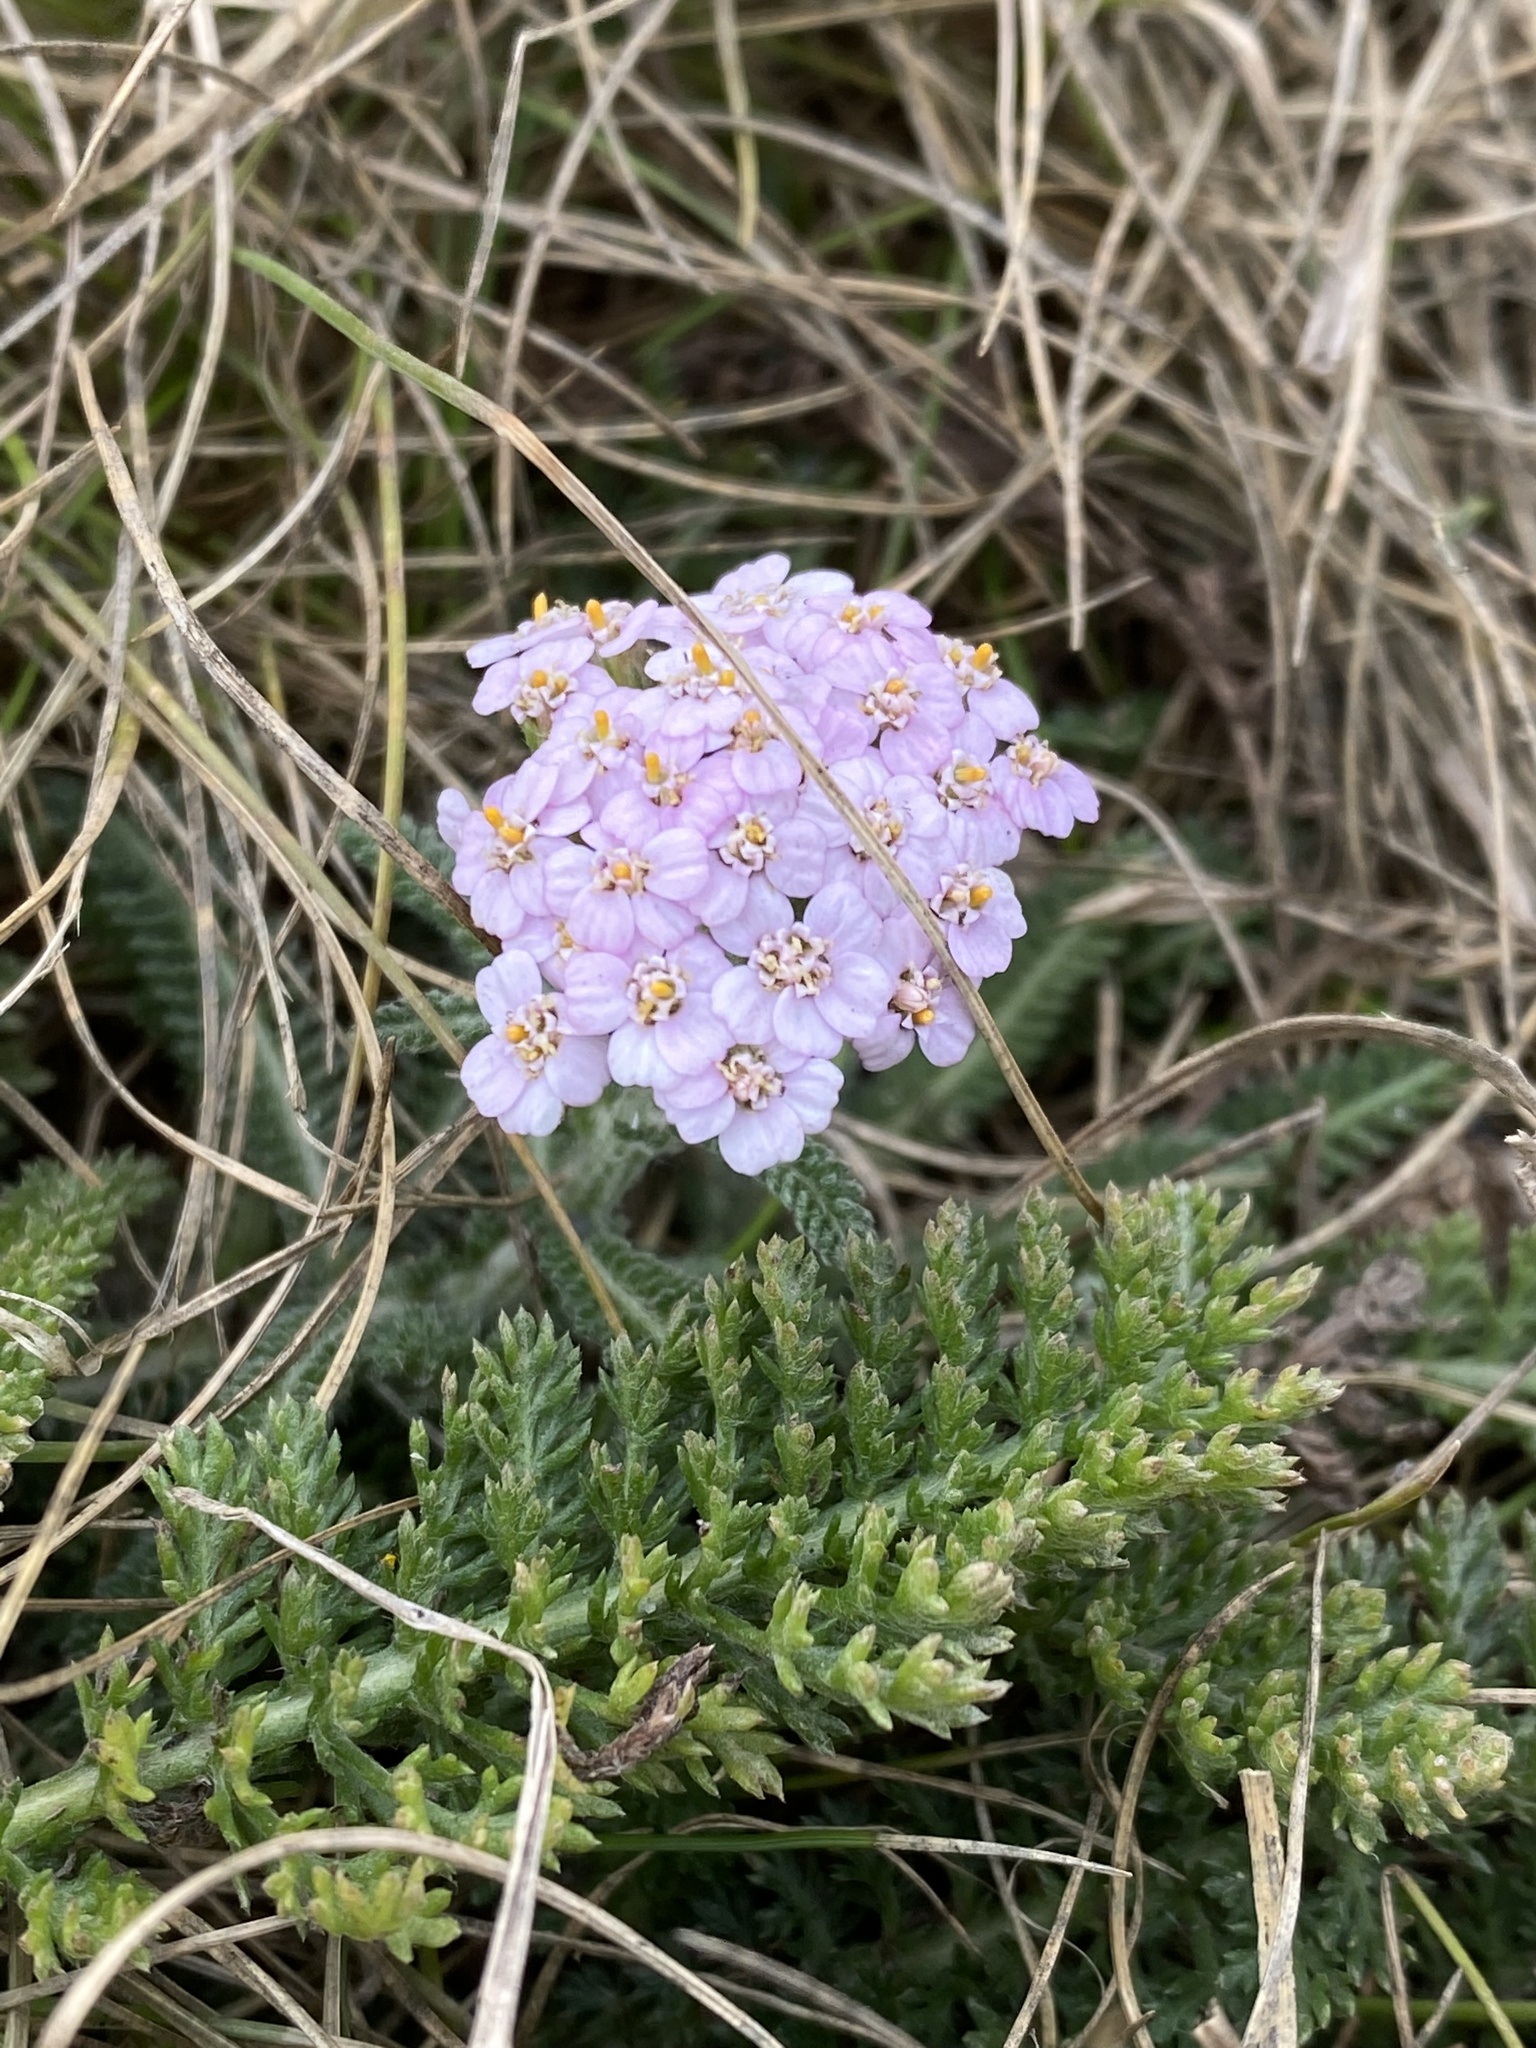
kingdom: Plantae
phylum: Tracheophyta
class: Magnoliopsida
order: Asterales
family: Asteraceae
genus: Achillea
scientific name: Achillea millefolium
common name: Yarrow
